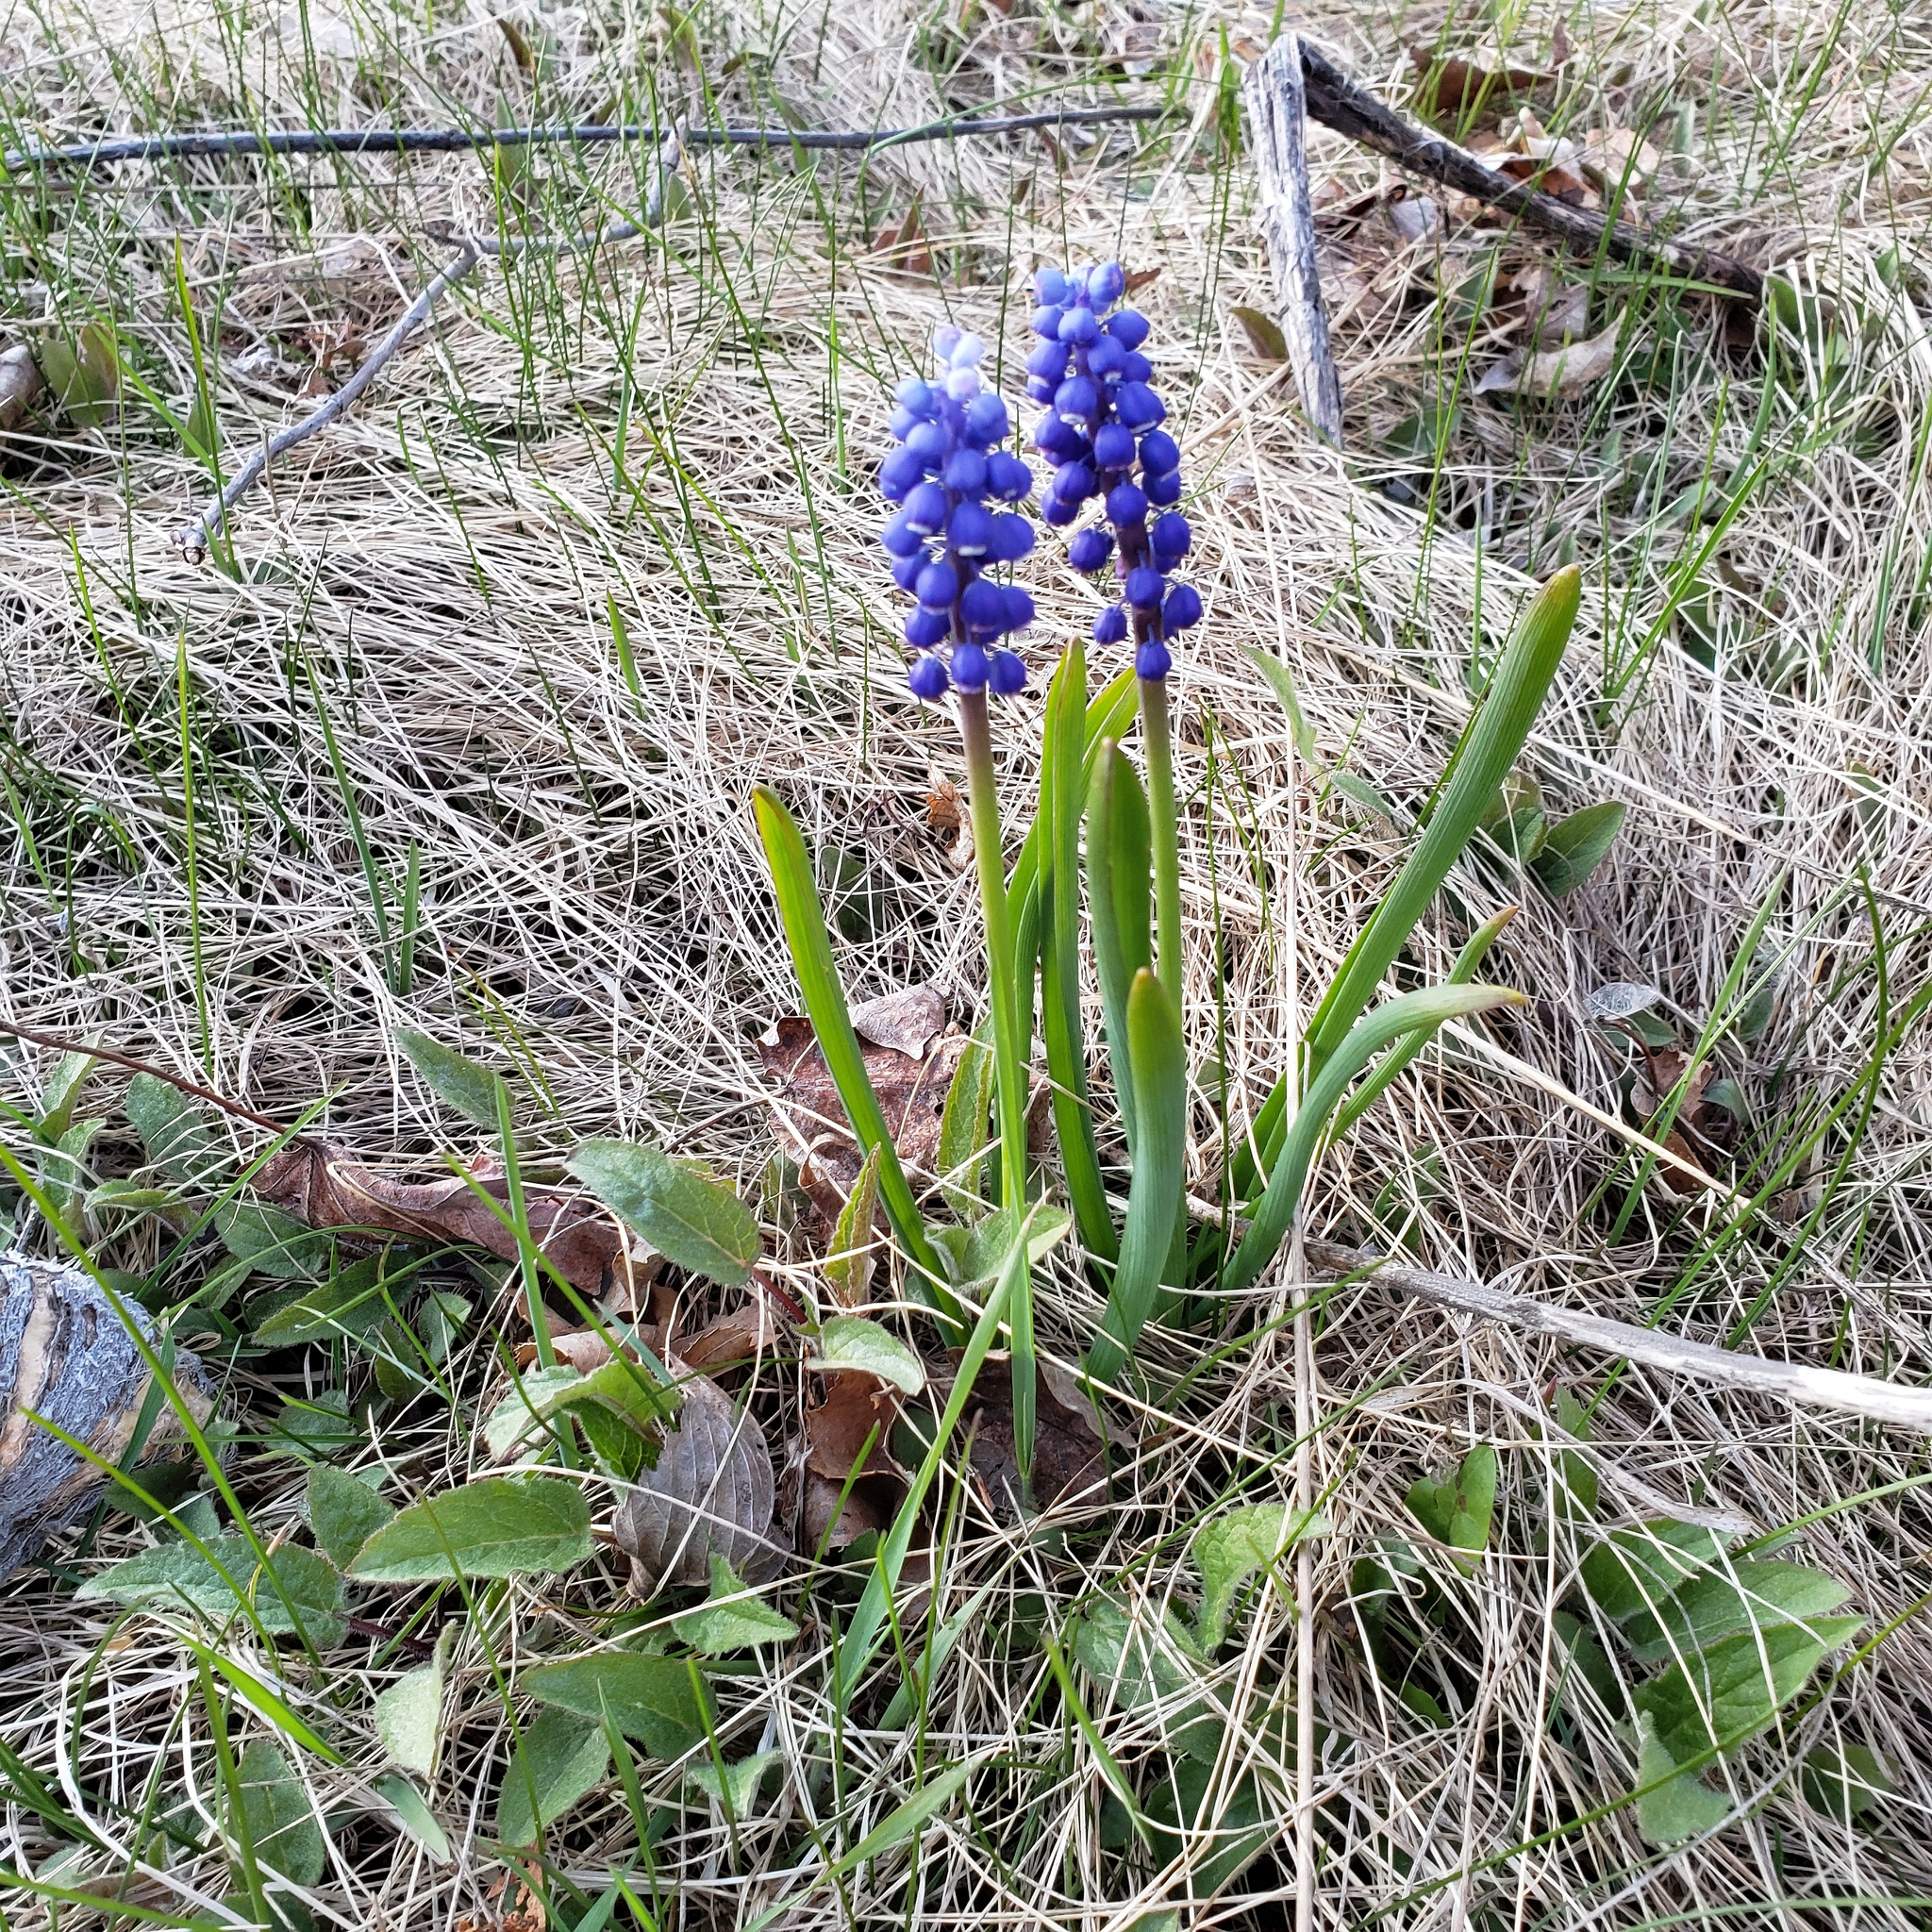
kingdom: Plantae
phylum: Tracheophyta
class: Liliopsida
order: Asparagales
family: Asparagaceae
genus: Muscari
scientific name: Muscari botryoides
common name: Compact grape-hyacinth
